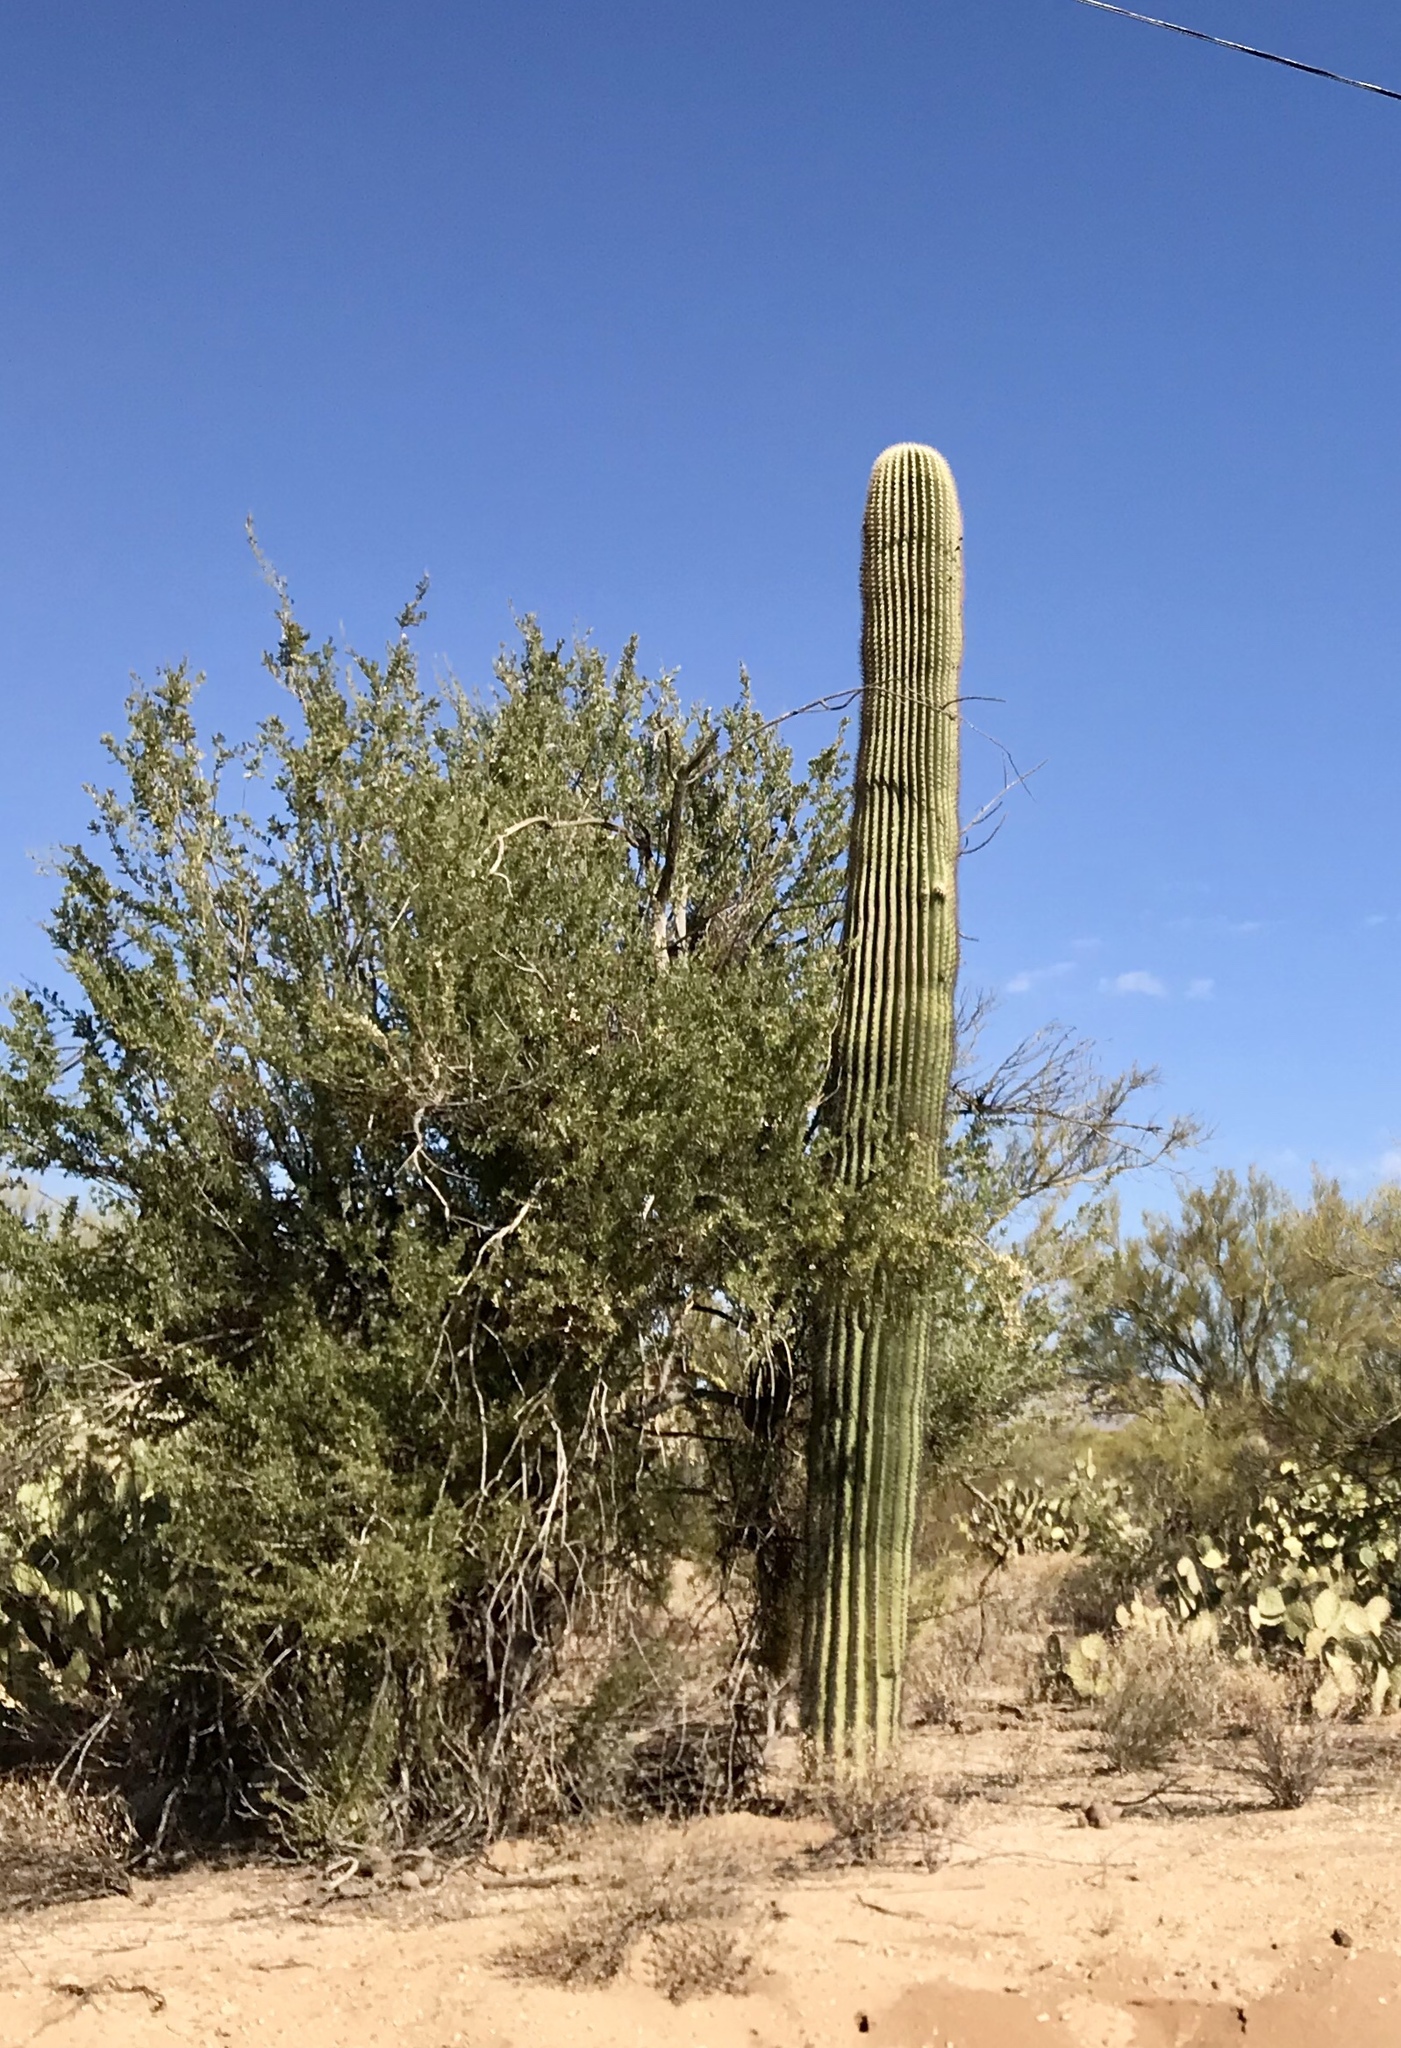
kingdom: Plantae
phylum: Tracheophyta
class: Magnoliopsida
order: Fabales
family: Fabaceae
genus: Olneya
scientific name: Olneya tesota
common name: Desert ironwood
